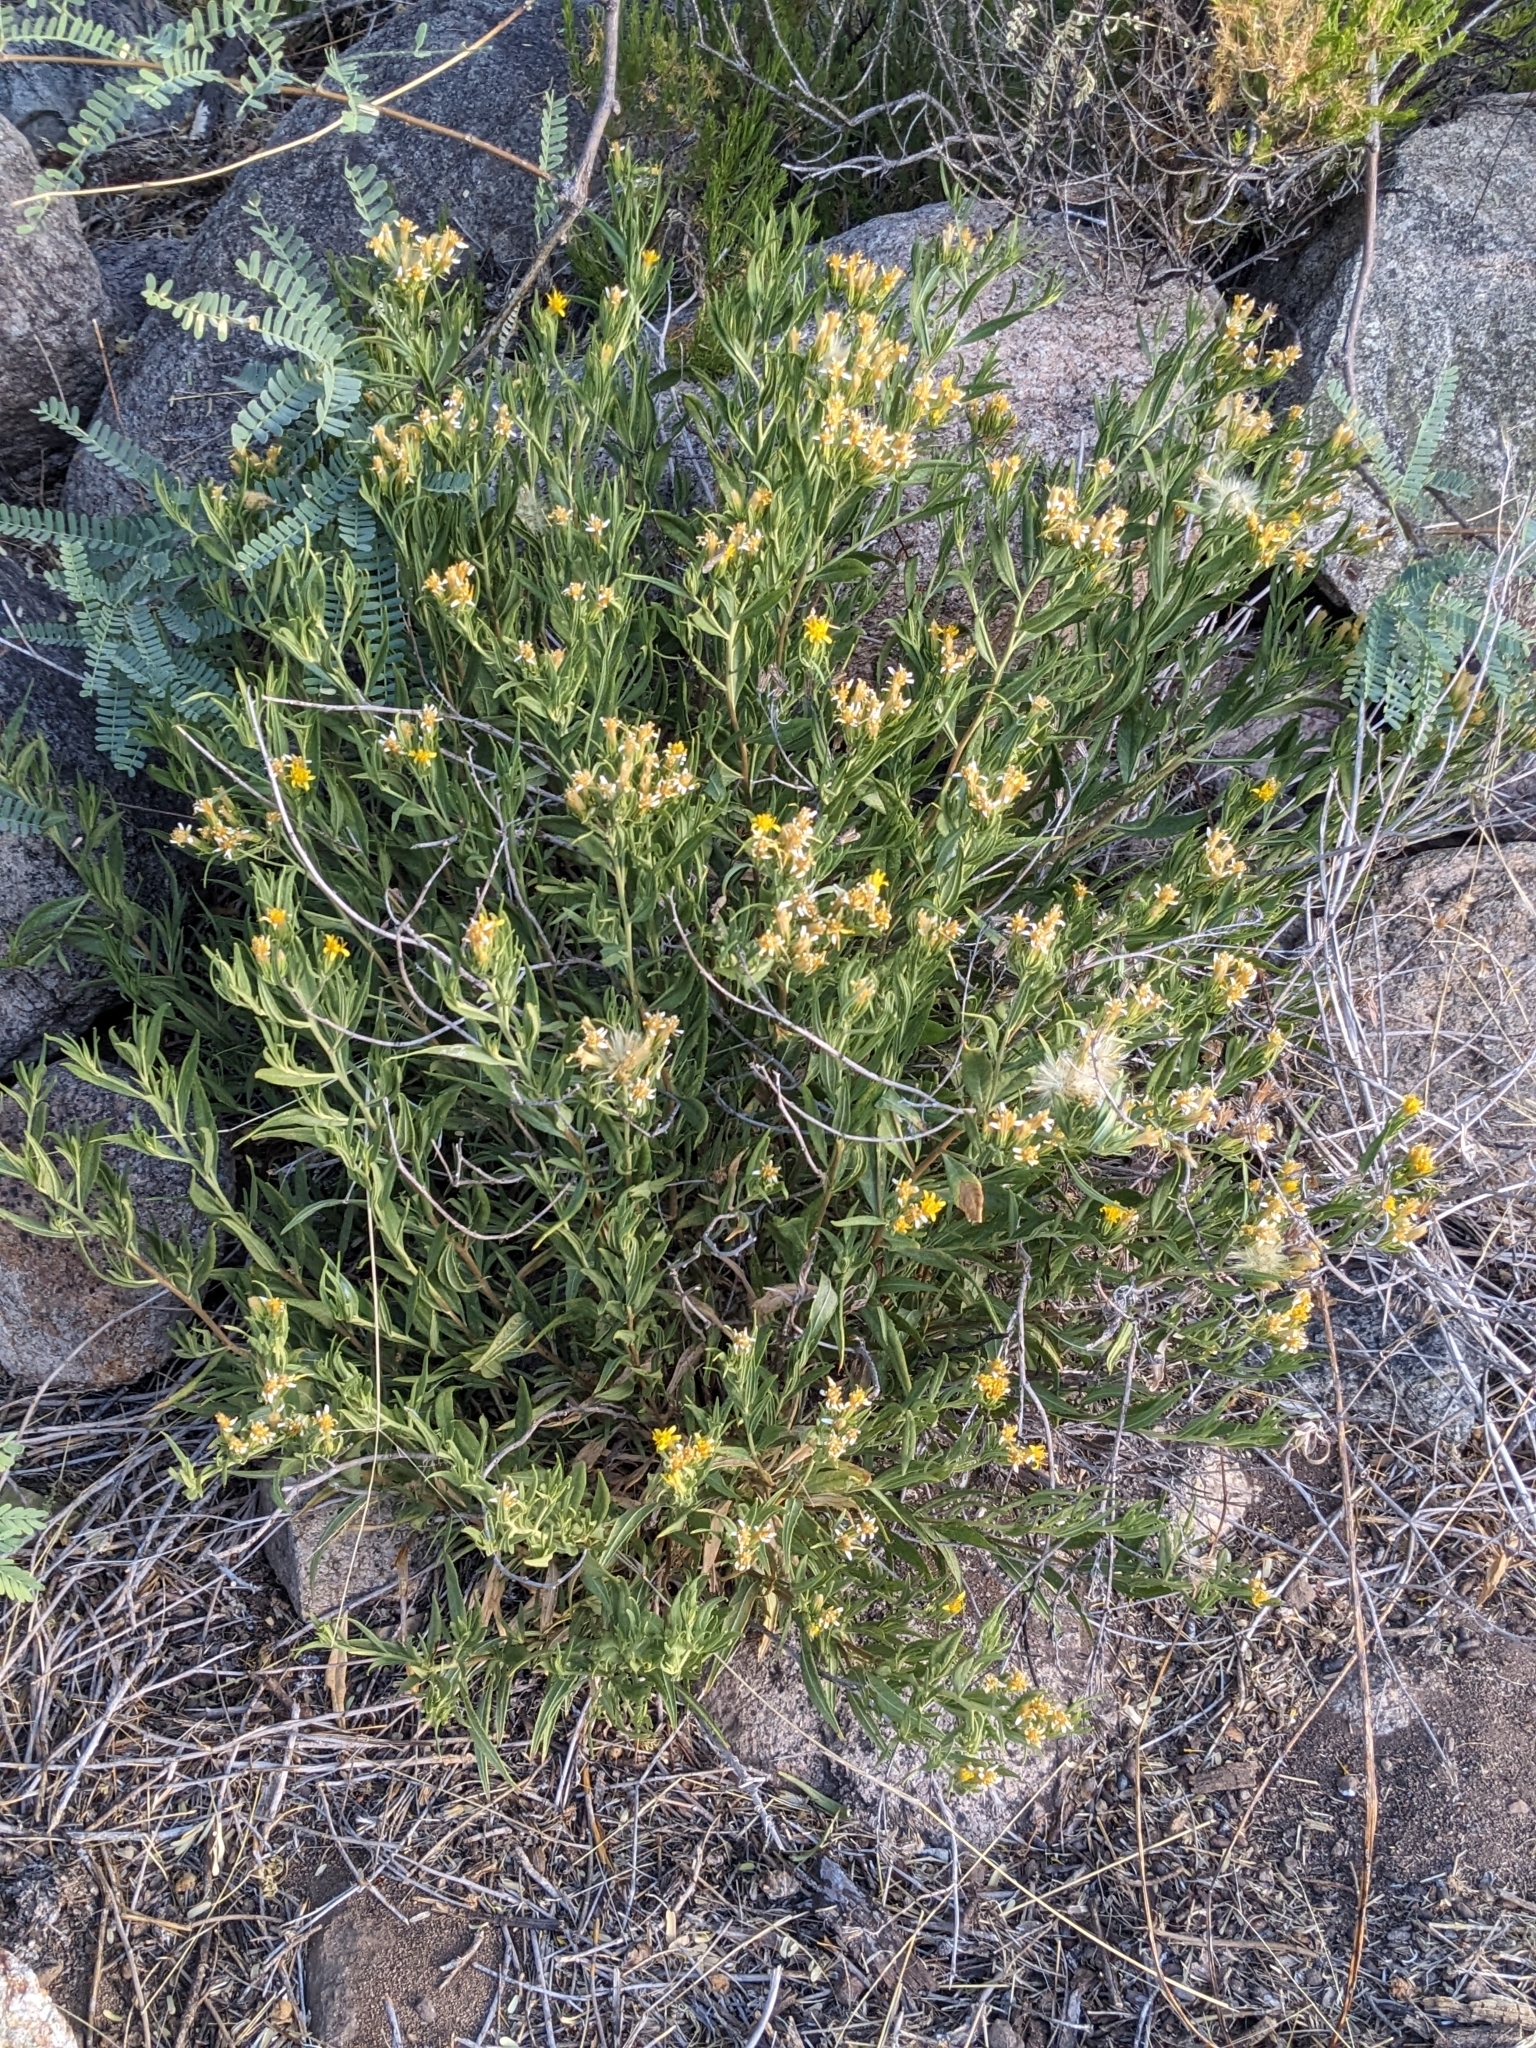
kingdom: Plantae
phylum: Tracheophyta
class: Magnoliopsida
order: Asterales
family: Asteraceae
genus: Trixis
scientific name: Trixis californica
